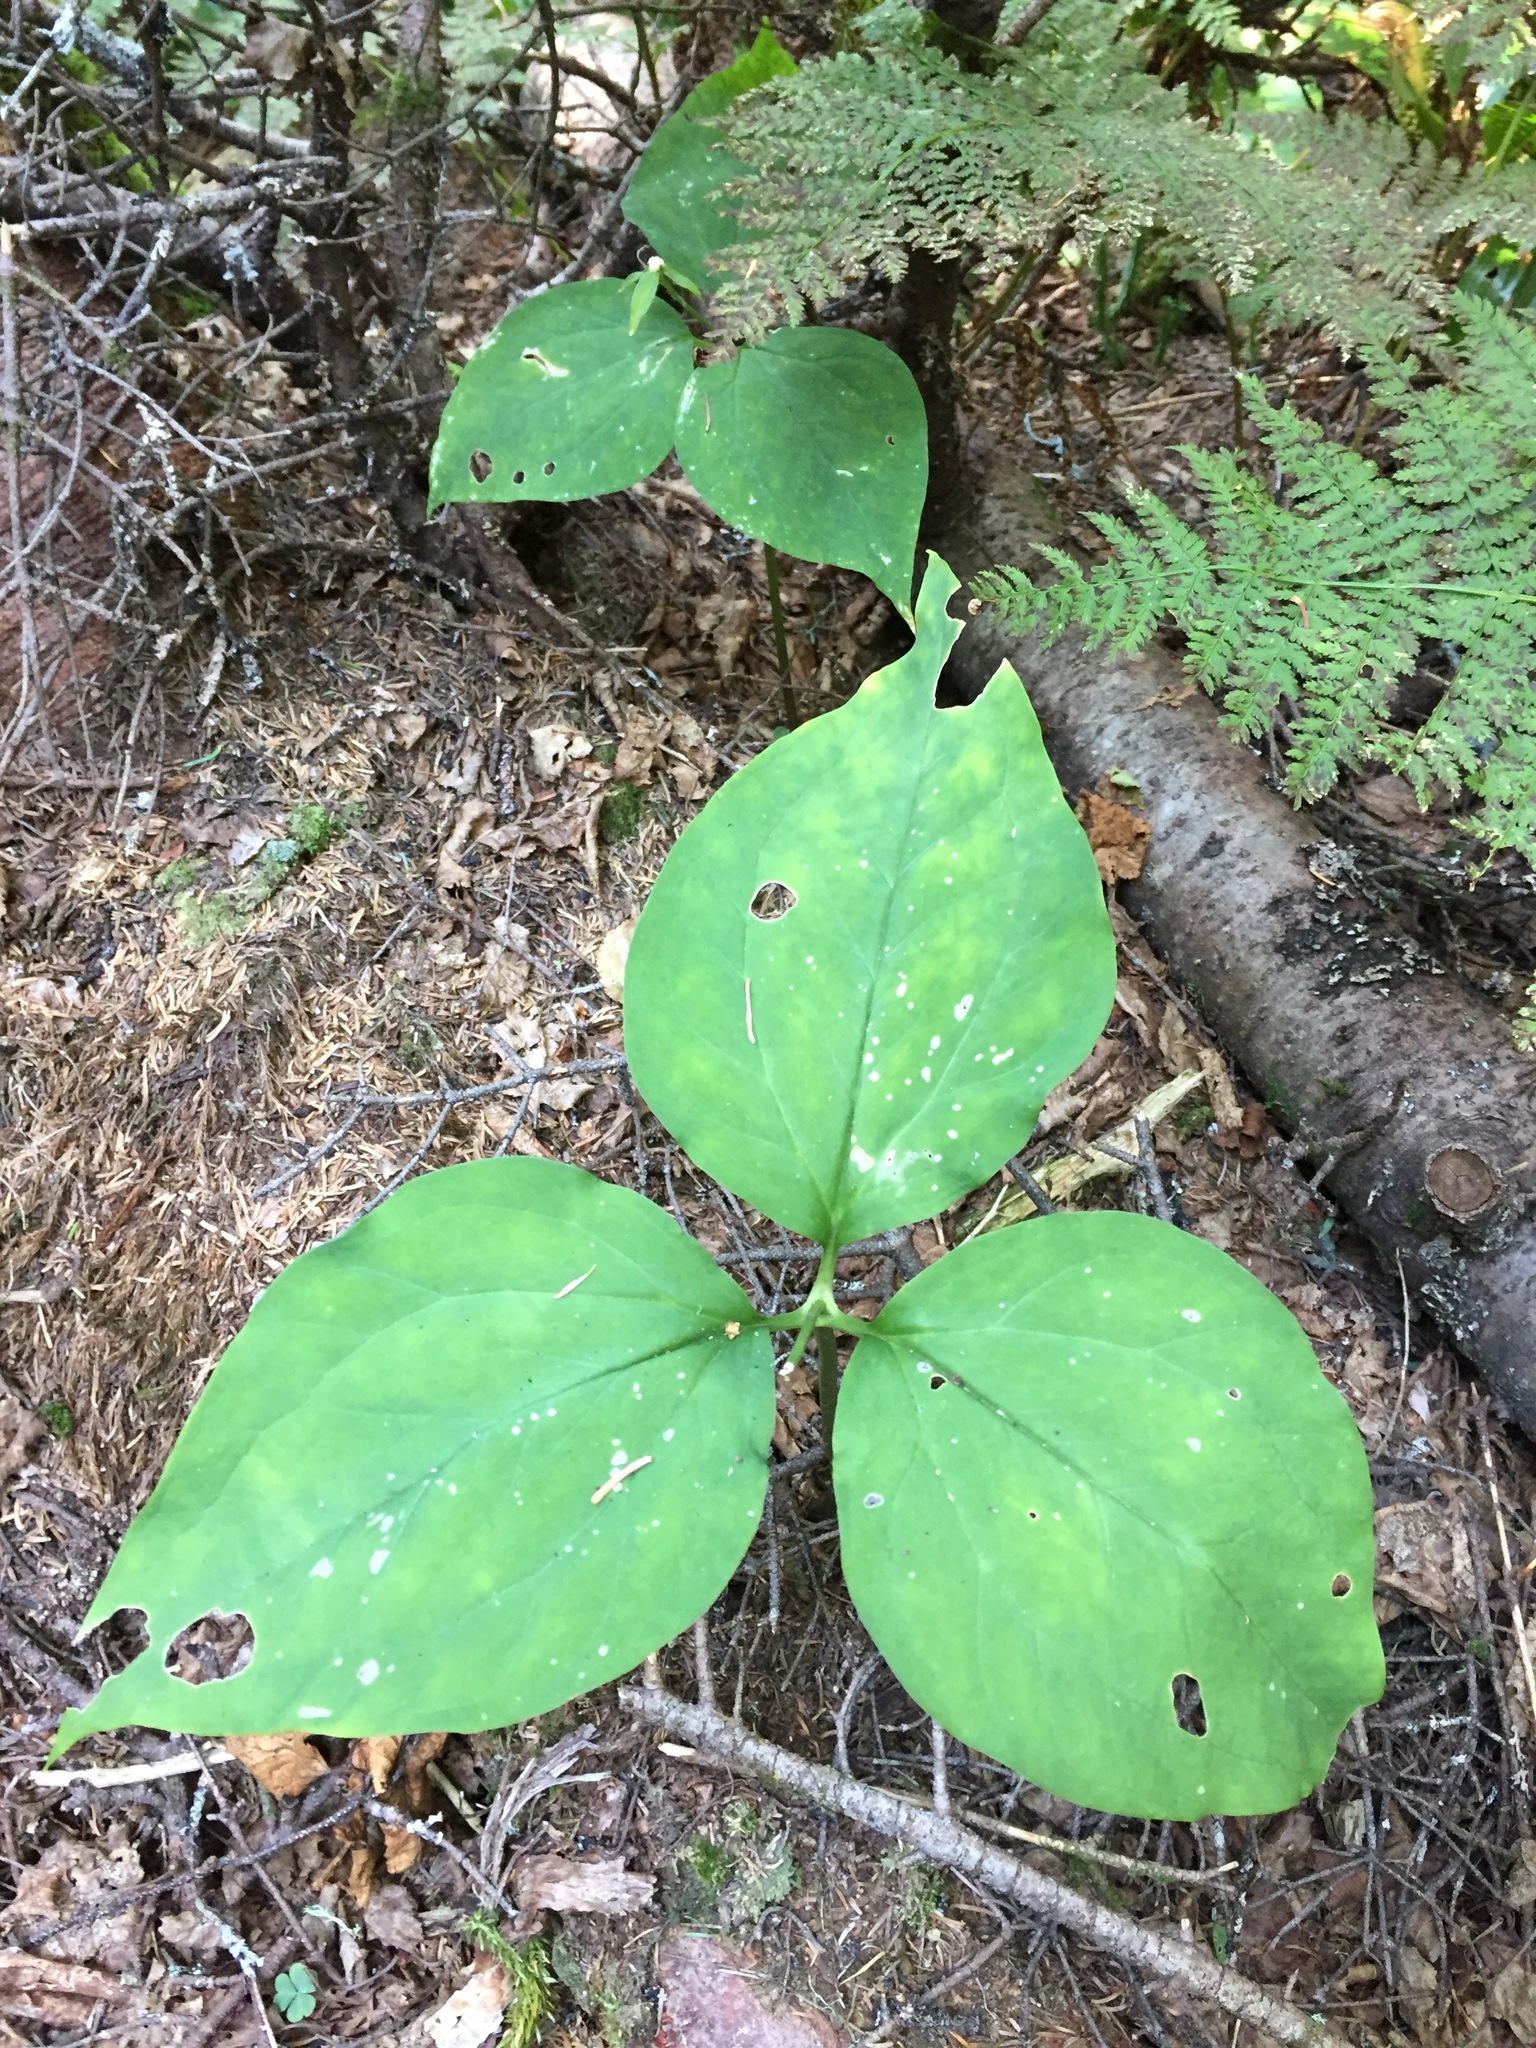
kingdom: Plantae
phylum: Tracheophyta
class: Liliopsida
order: Liliales
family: Melanthiaceae
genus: Trillium
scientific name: Trillium undulatum
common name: Paint trillium
